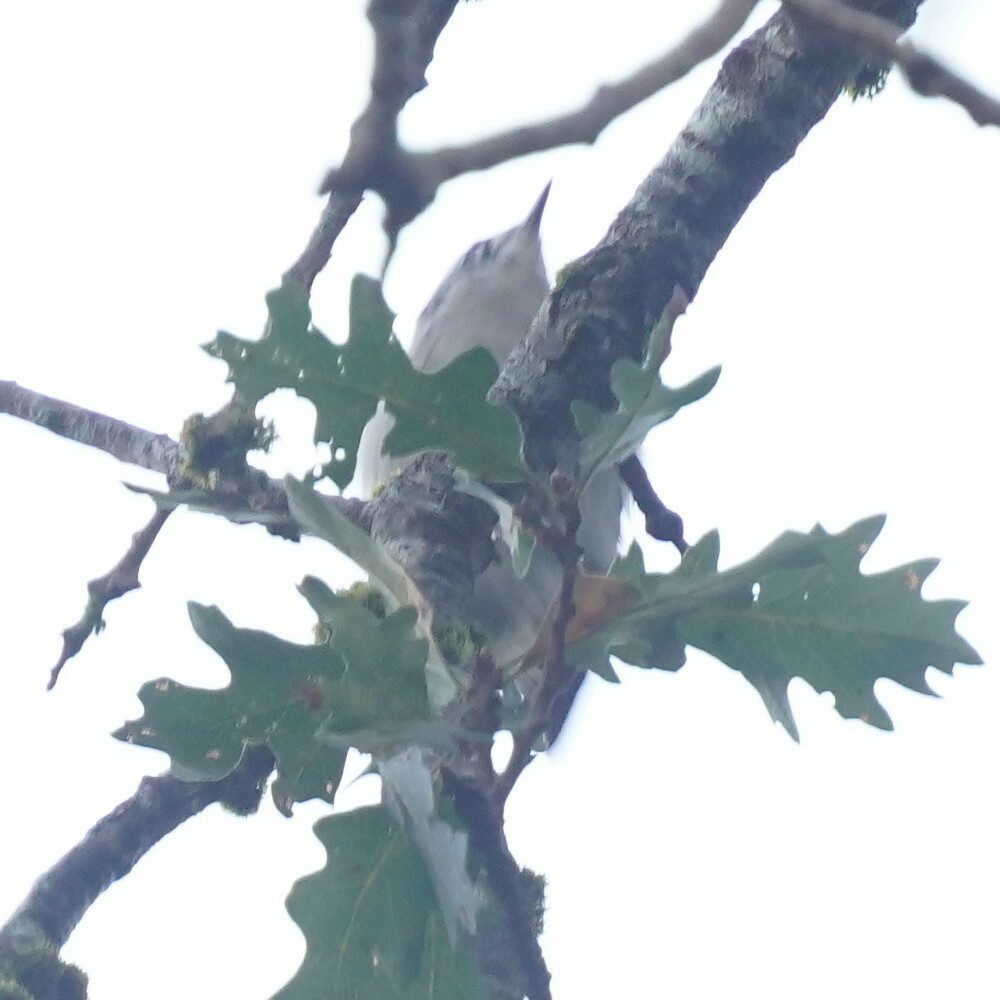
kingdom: Animalia
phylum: Chordata
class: Aves
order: Passeriformes
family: Sittidae
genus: Sitta
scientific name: Sitta carolinensis
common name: White-breasted nuthatch
